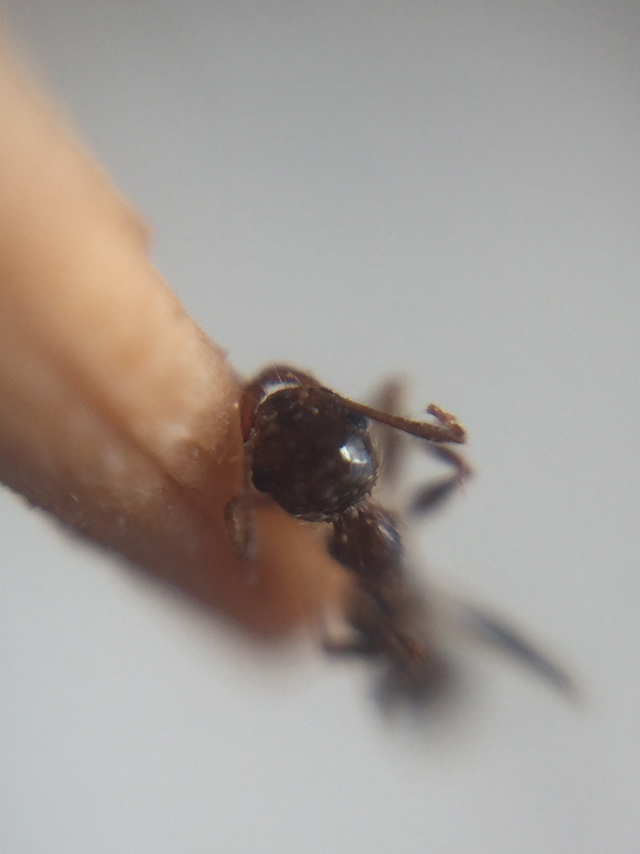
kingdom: Animalia
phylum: Arthropoda
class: Insecta
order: Hymenoptera
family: Formicidae
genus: Pheidole
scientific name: Pheidole indica
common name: Big-headed ant
